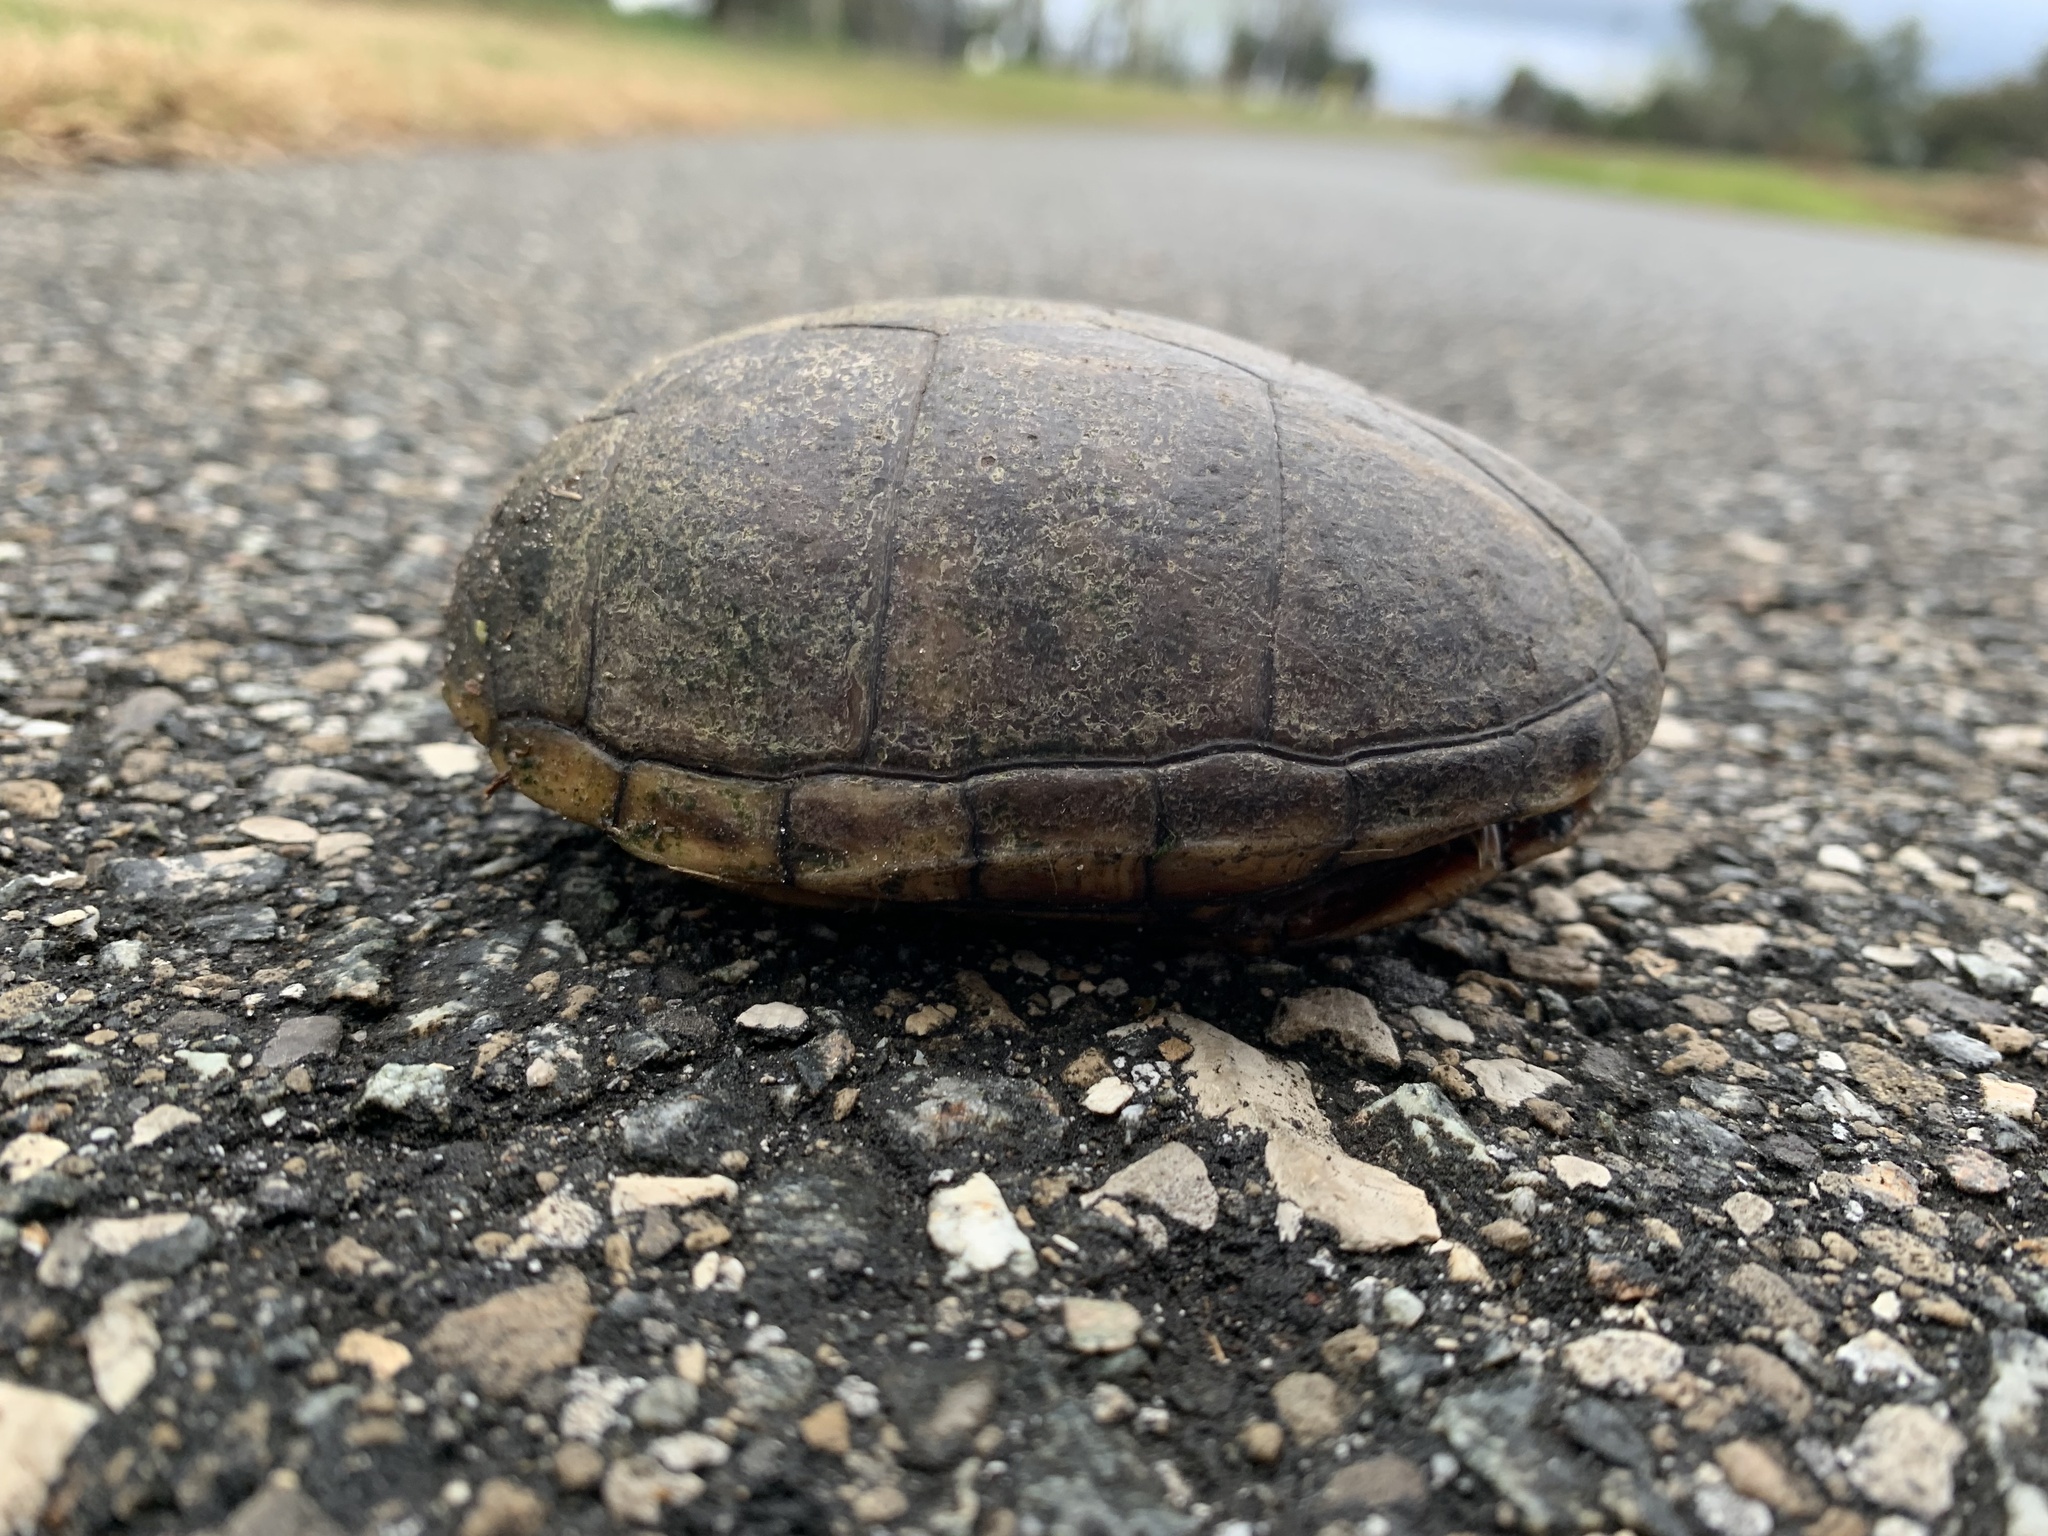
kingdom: Animalia
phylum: Chordata
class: Testudines
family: Kinosternidae
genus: Kinosternon
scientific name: Kinosternon baurii
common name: Striped mud turtle
